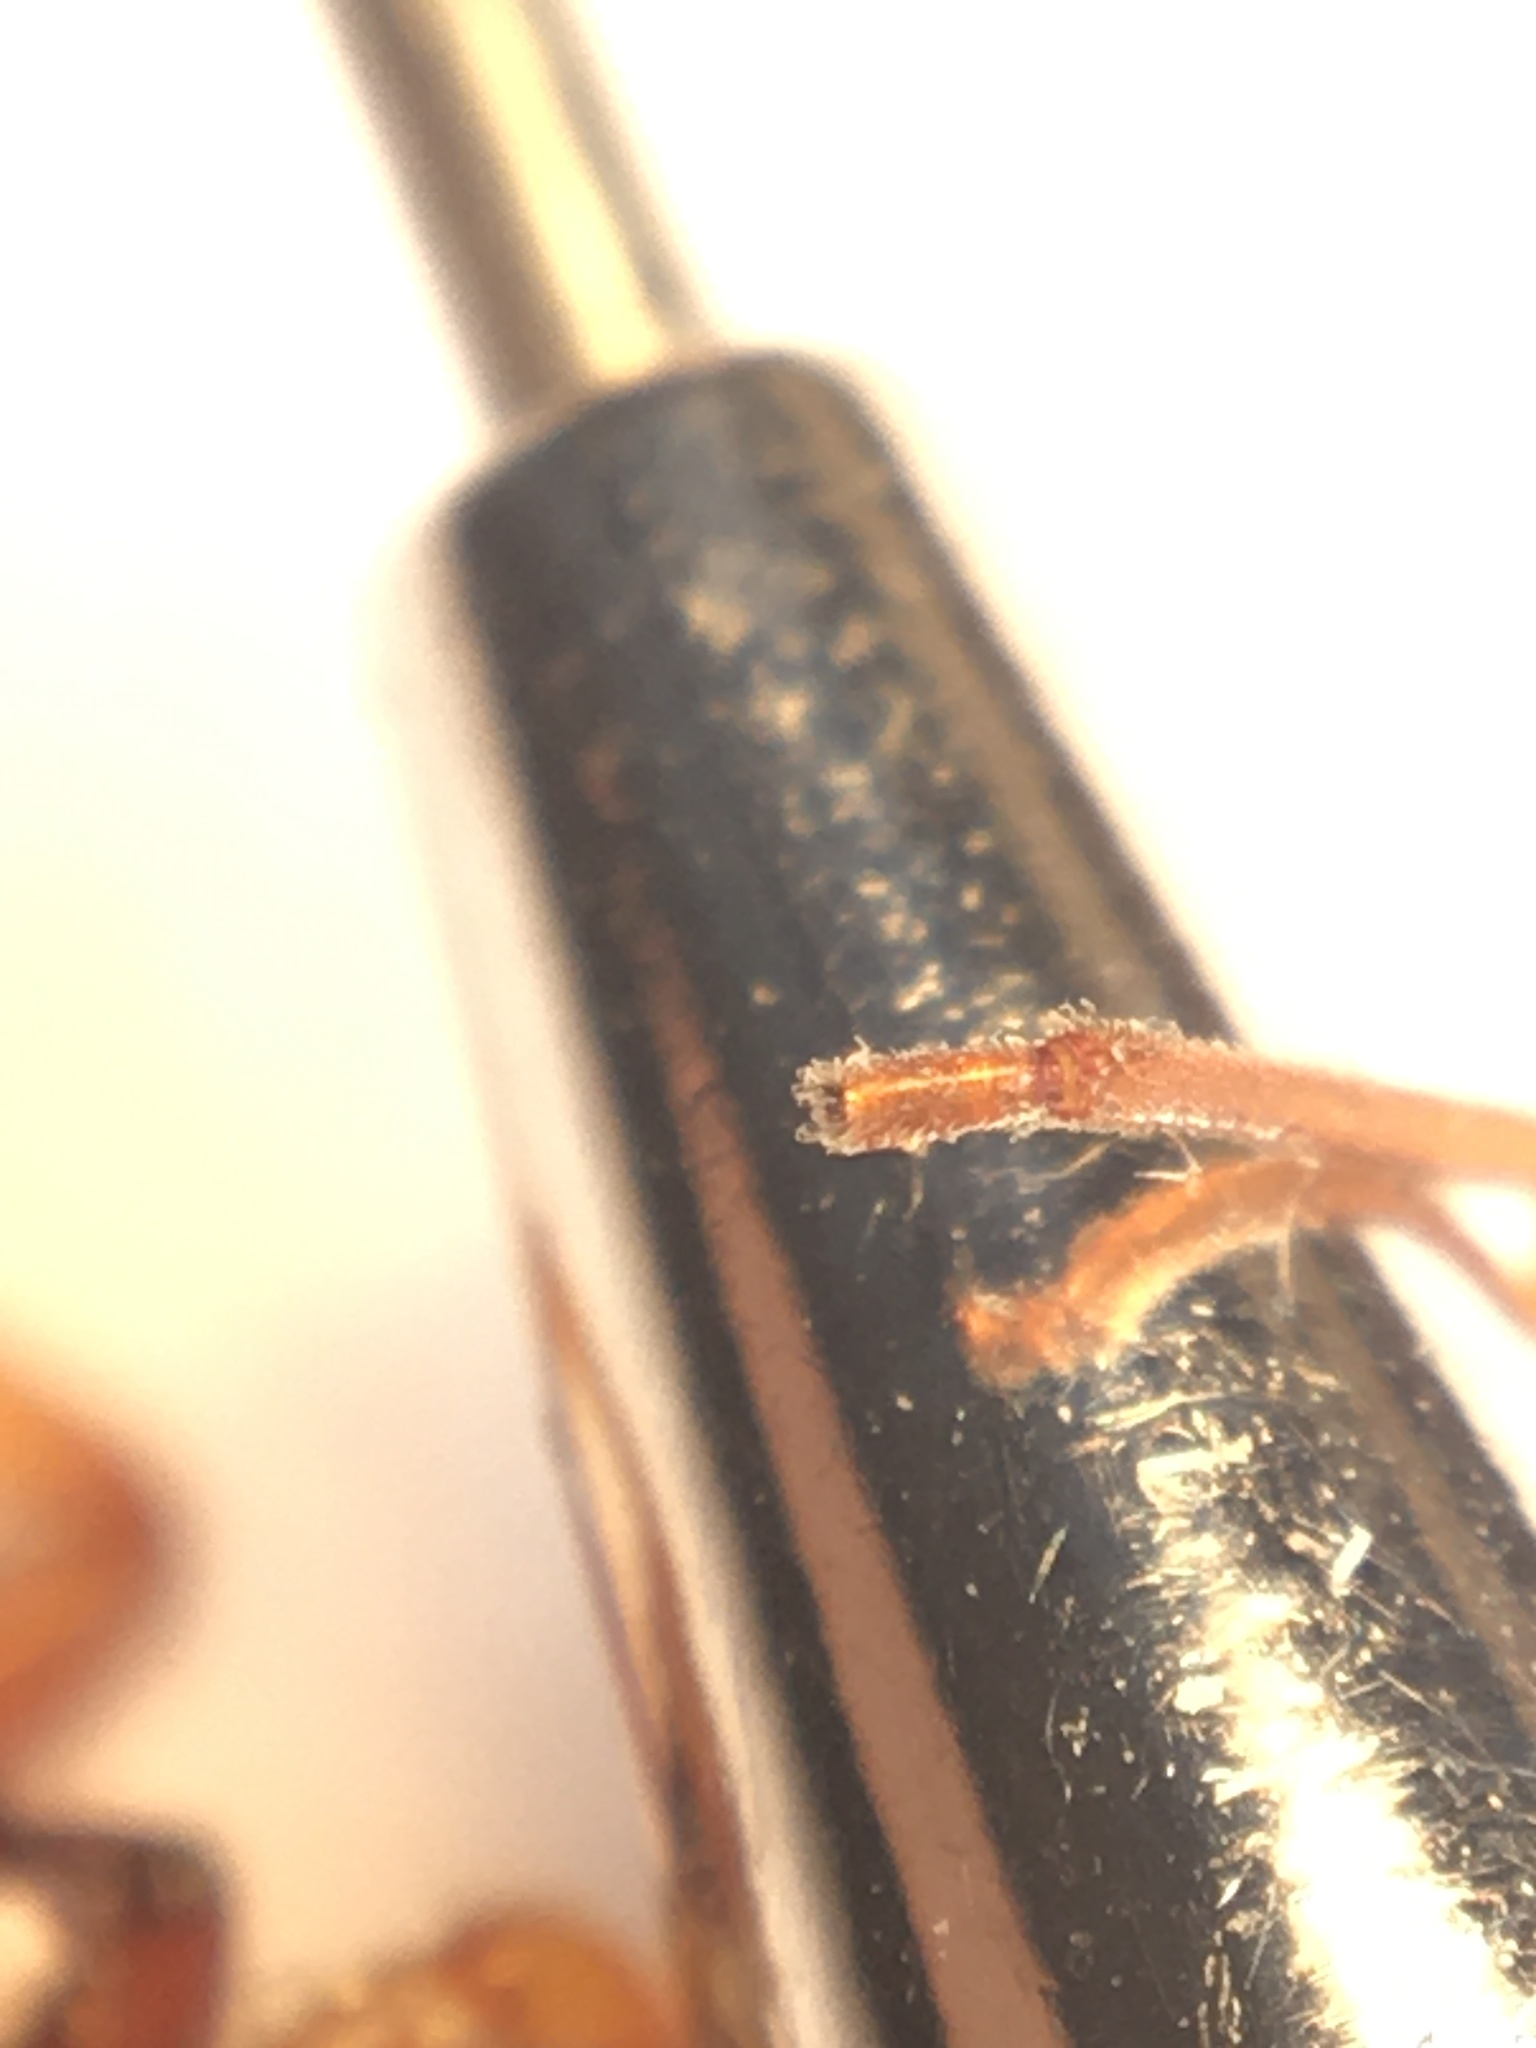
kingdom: Animalia
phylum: Arthropoda
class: Arachnida
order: Araneae
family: Dysderidae
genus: Dysdera
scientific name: Dysdera crocata
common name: Woodlouse spider
